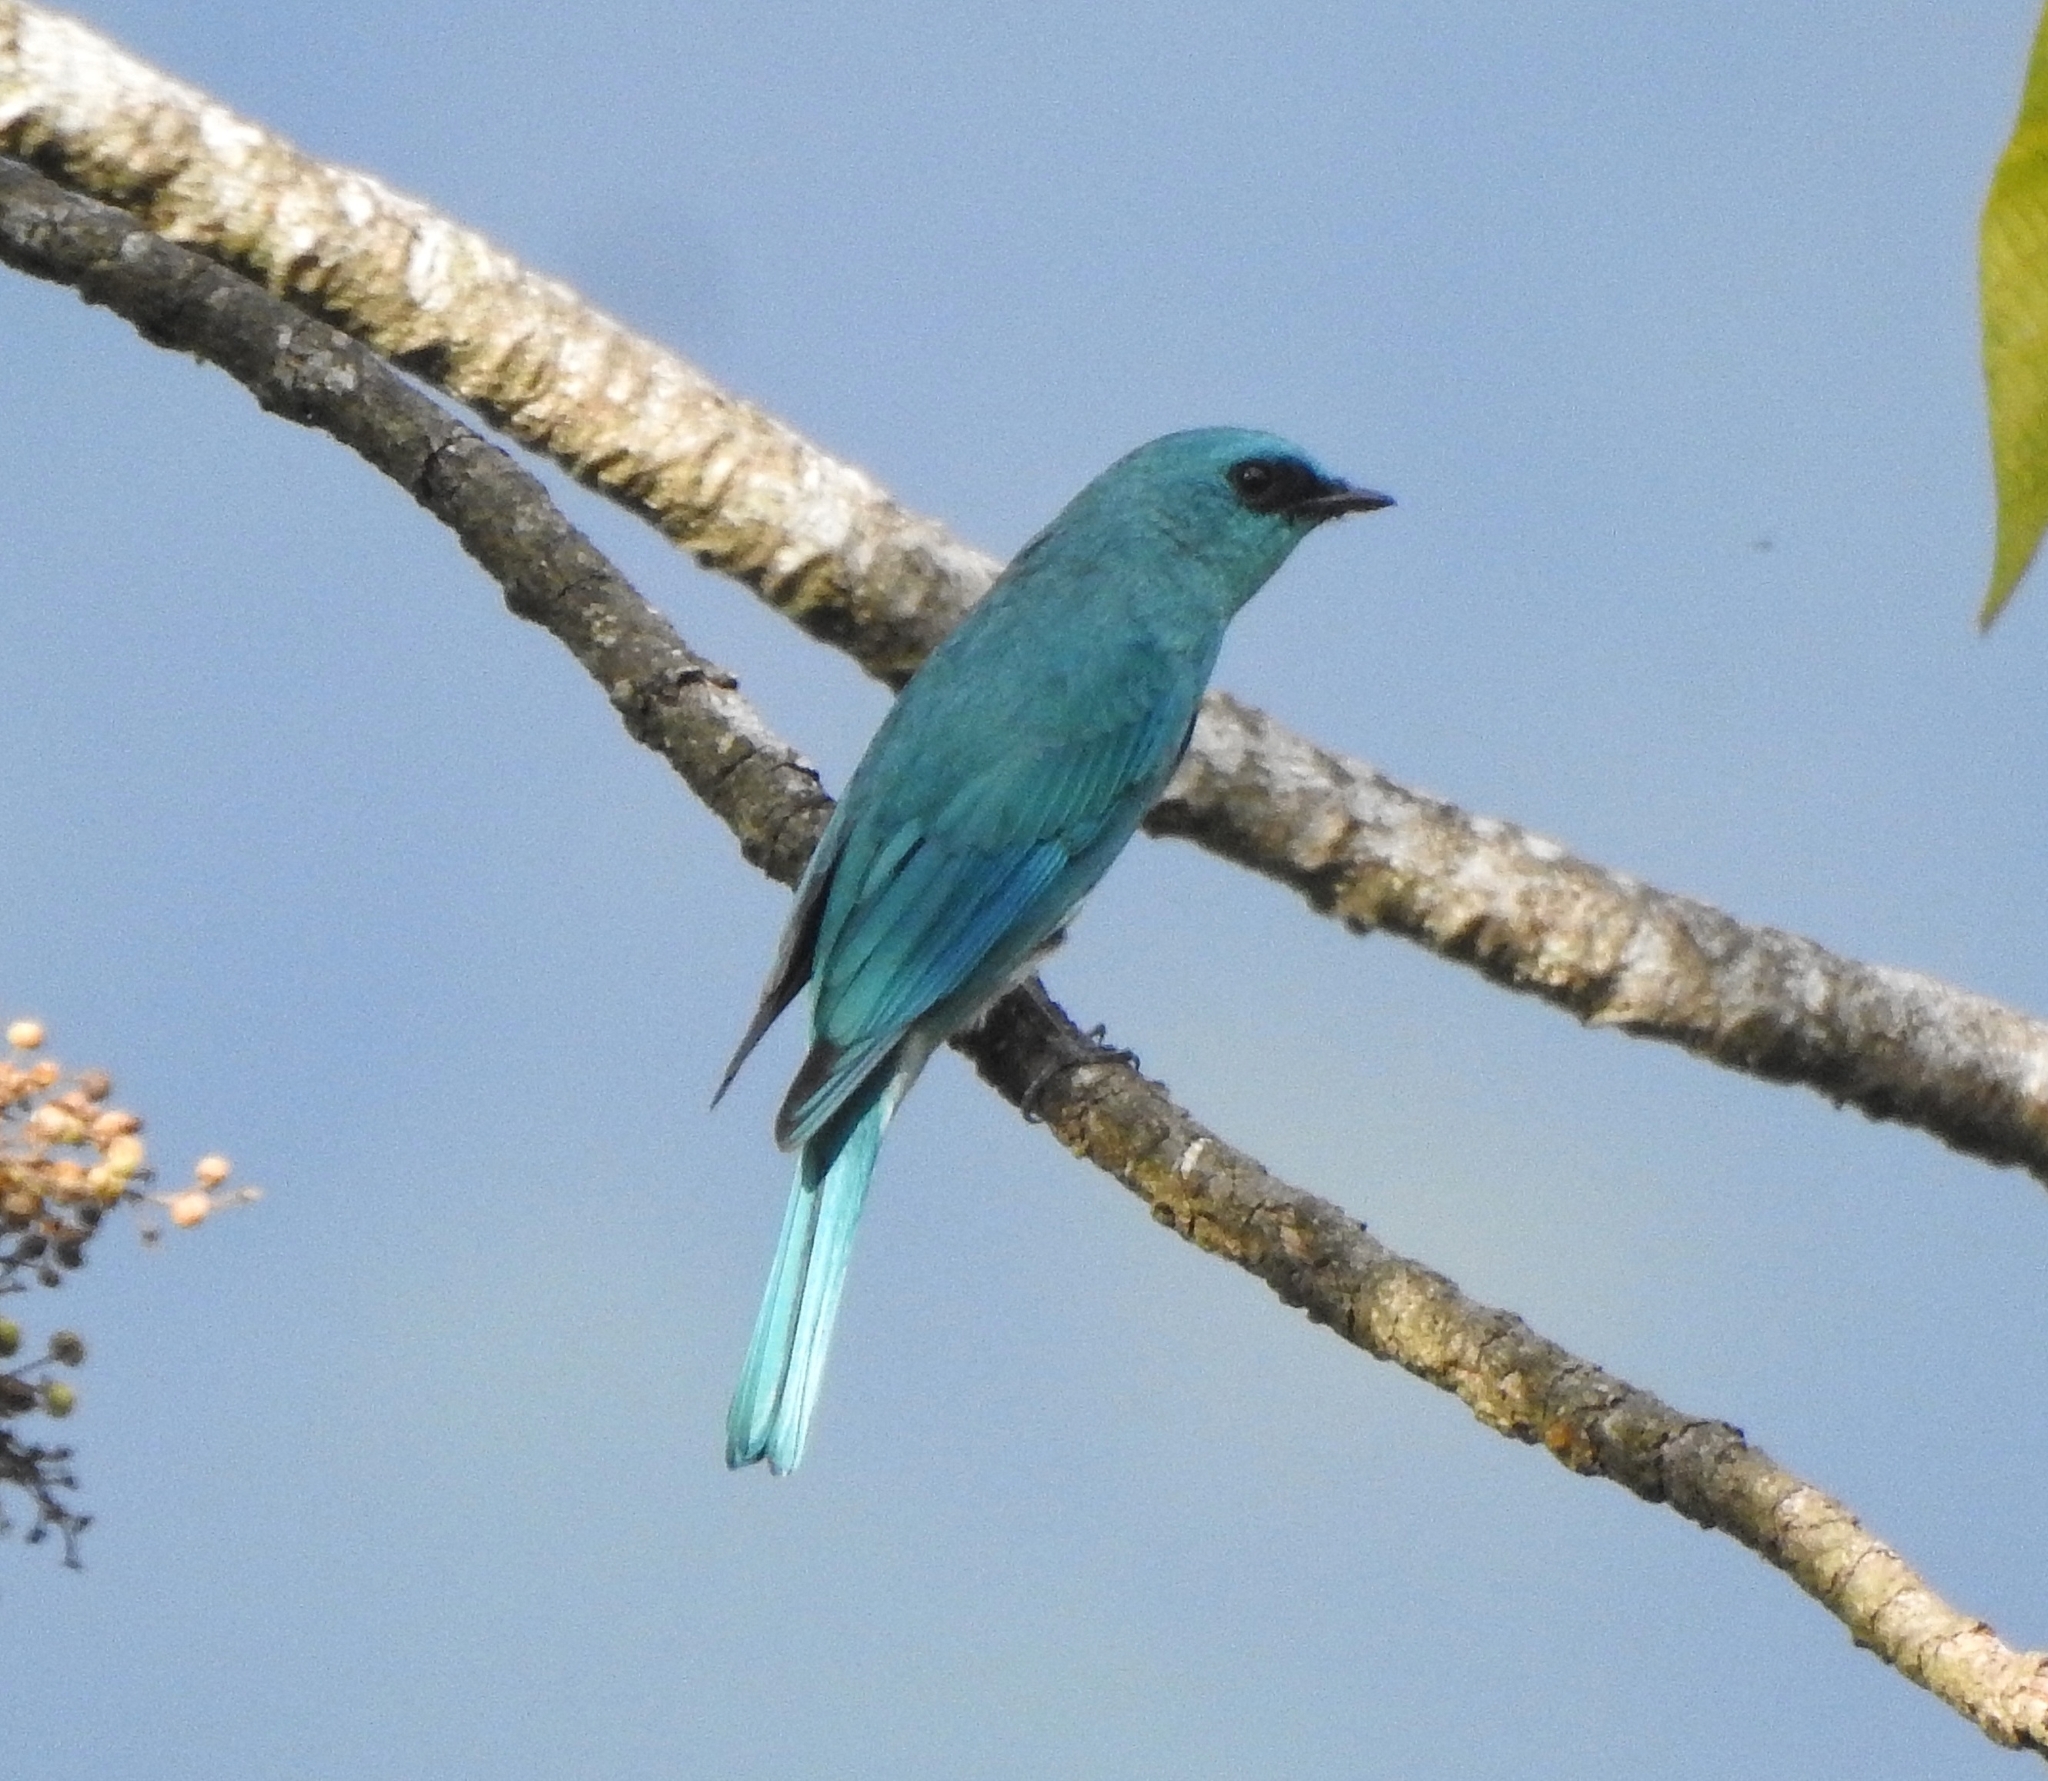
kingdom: Animalia
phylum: Chordata
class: Aves
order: Passeriformes
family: Muscicapidae
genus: Eumyias
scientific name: Eumyias thalassinus
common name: Verditer flycatcher
